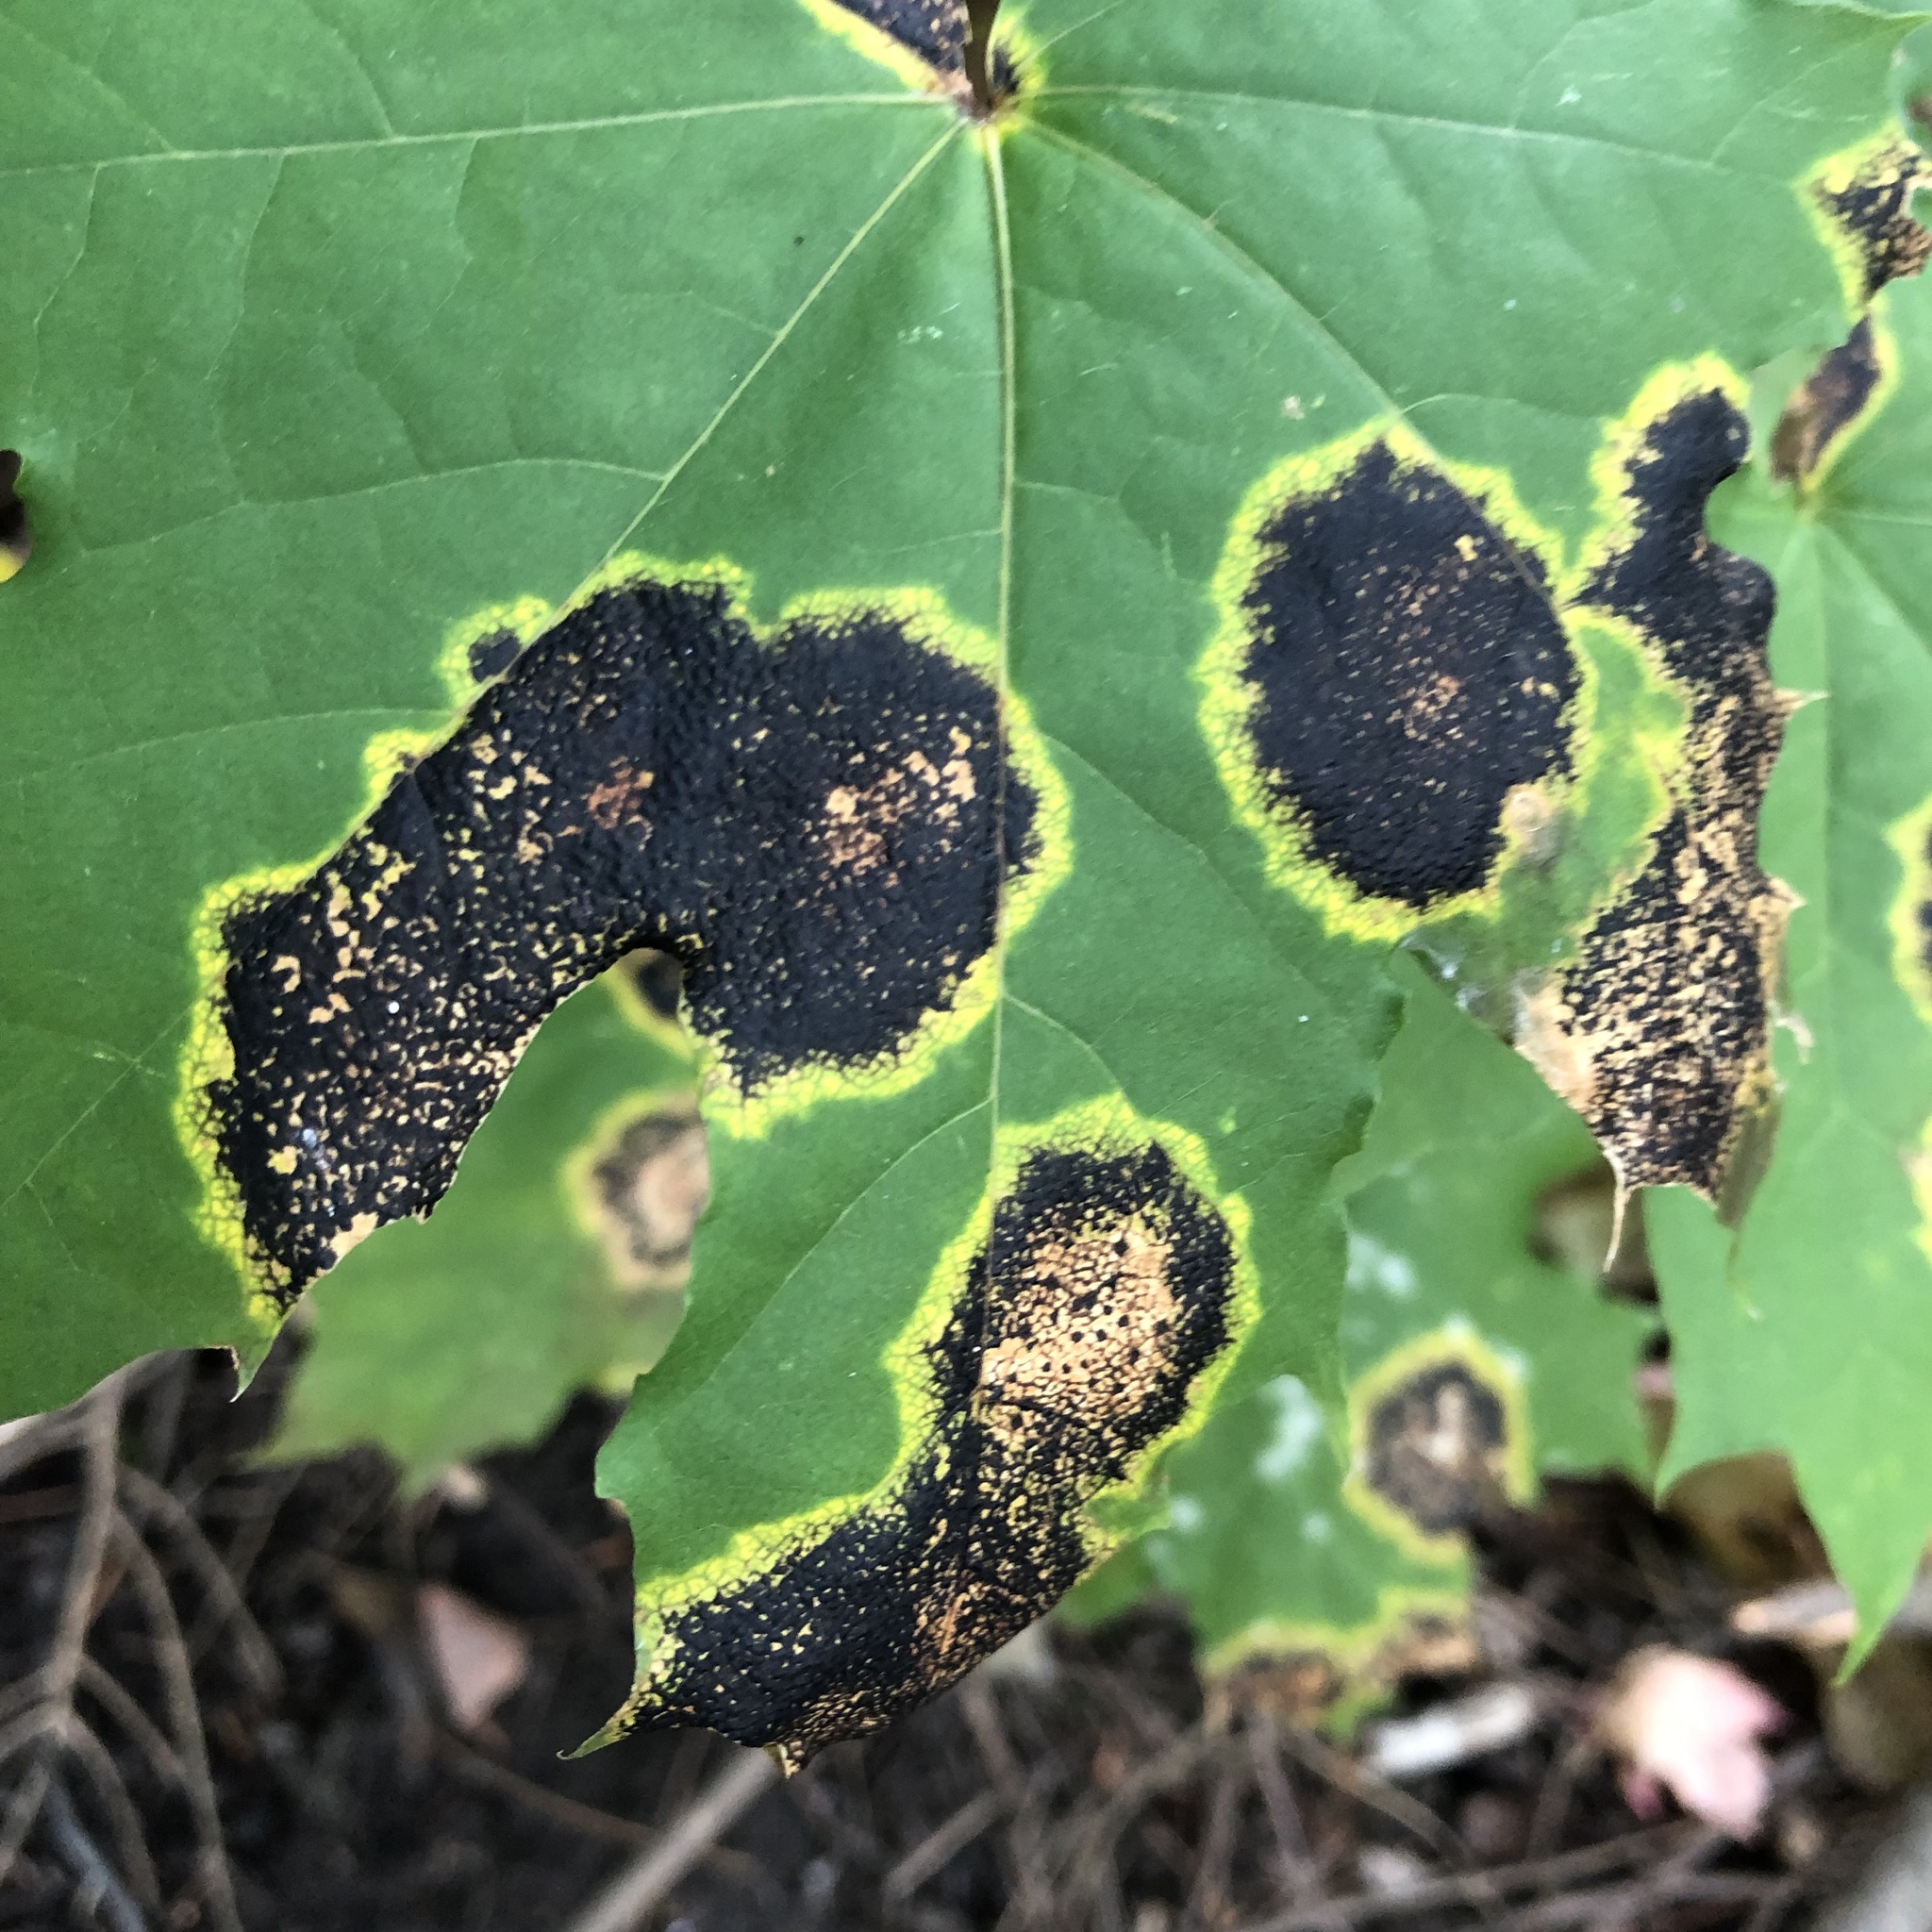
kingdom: Fungi
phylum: Ascomycota
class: Leotiomycetes
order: Rhytismatales
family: Rhytismataceae
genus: Rhytisma
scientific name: Rhytisma acerinum
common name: European tar spot
